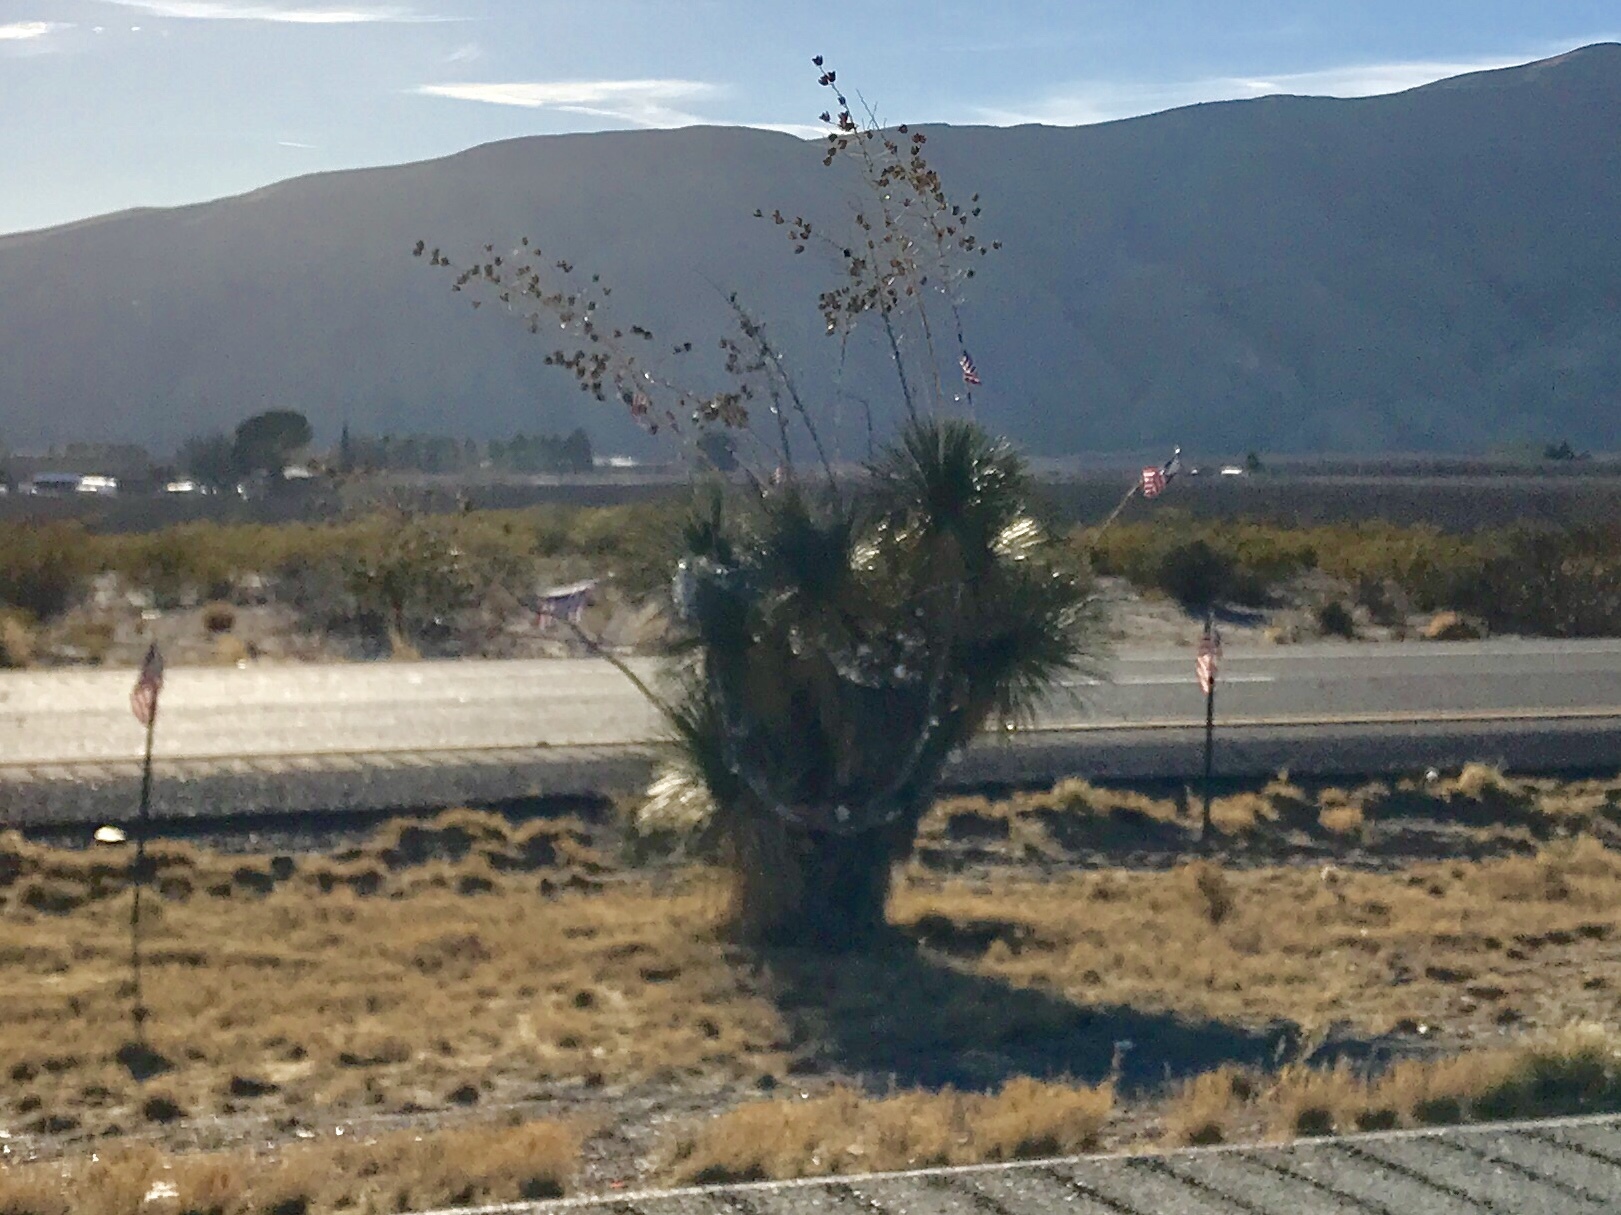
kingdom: Plantae
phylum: Tracheophyta
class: Liliopsida
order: Asparagales
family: Asparagaceae
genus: Yucca
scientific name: Yucca elata
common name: Palmella
